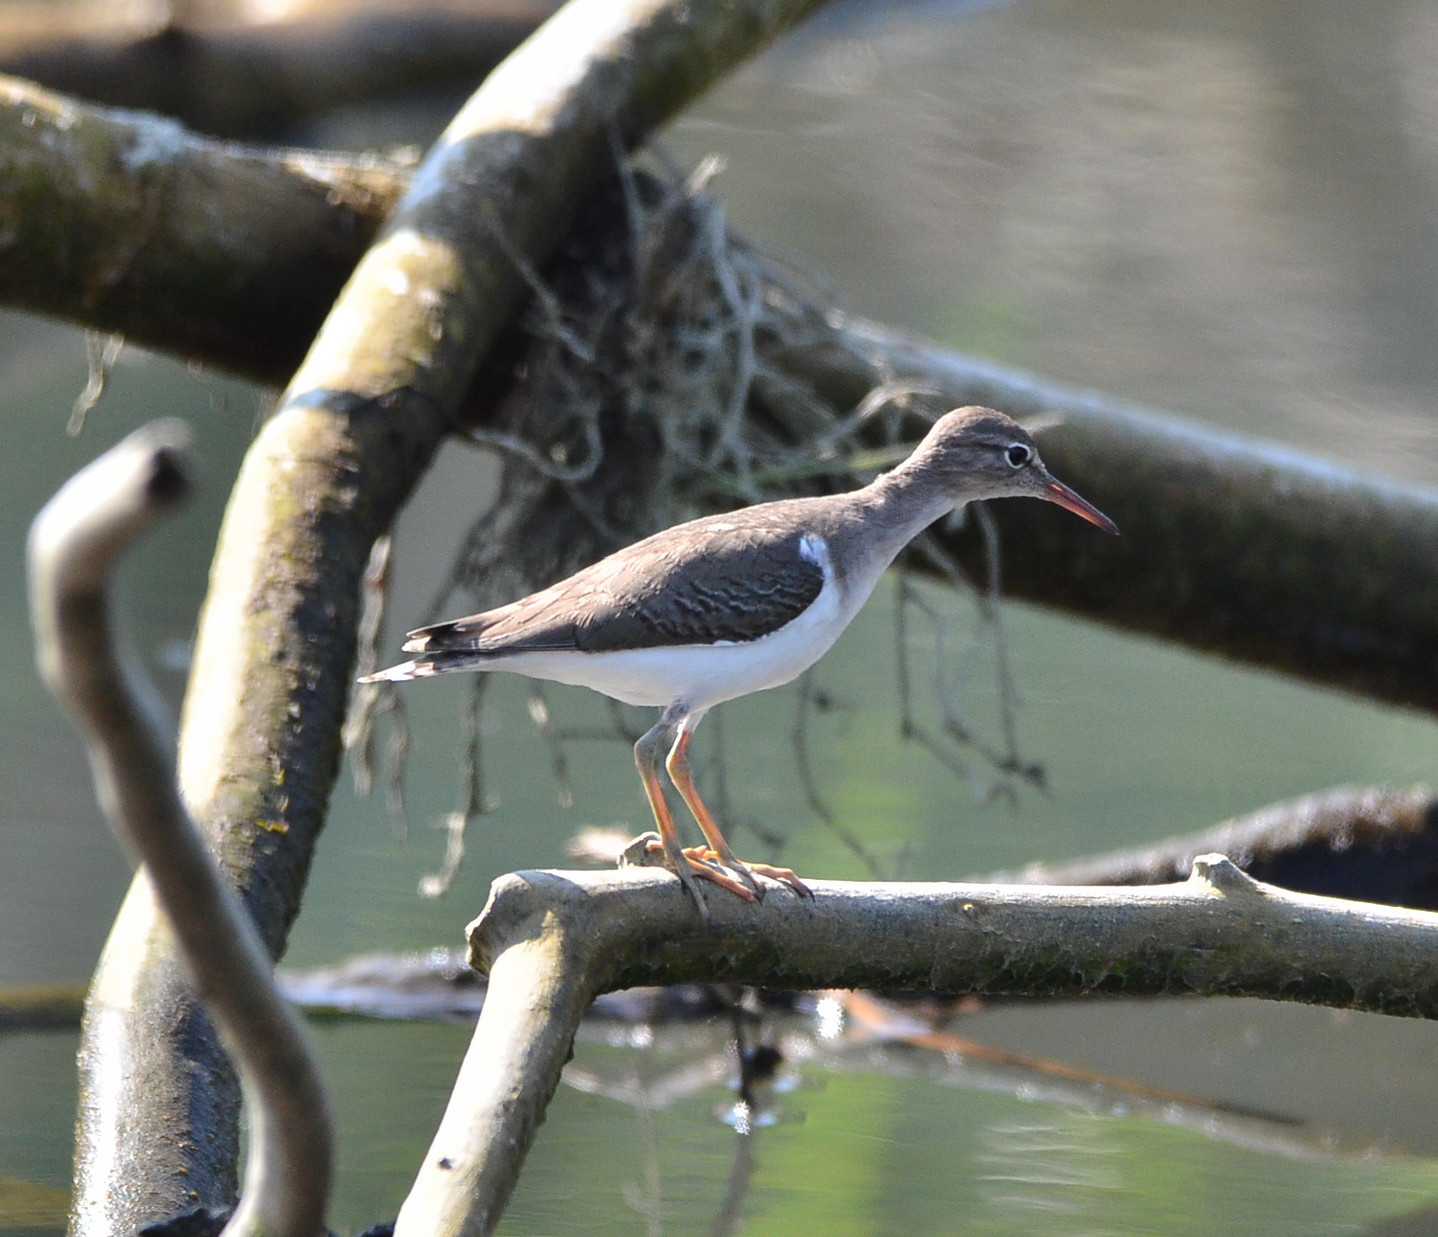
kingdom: Animalia
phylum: Chordata
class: Aves
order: Charadriiformes
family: Scolopacidae
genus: Actitis
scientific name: Actitis macularius
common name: Spotted sandpiper
